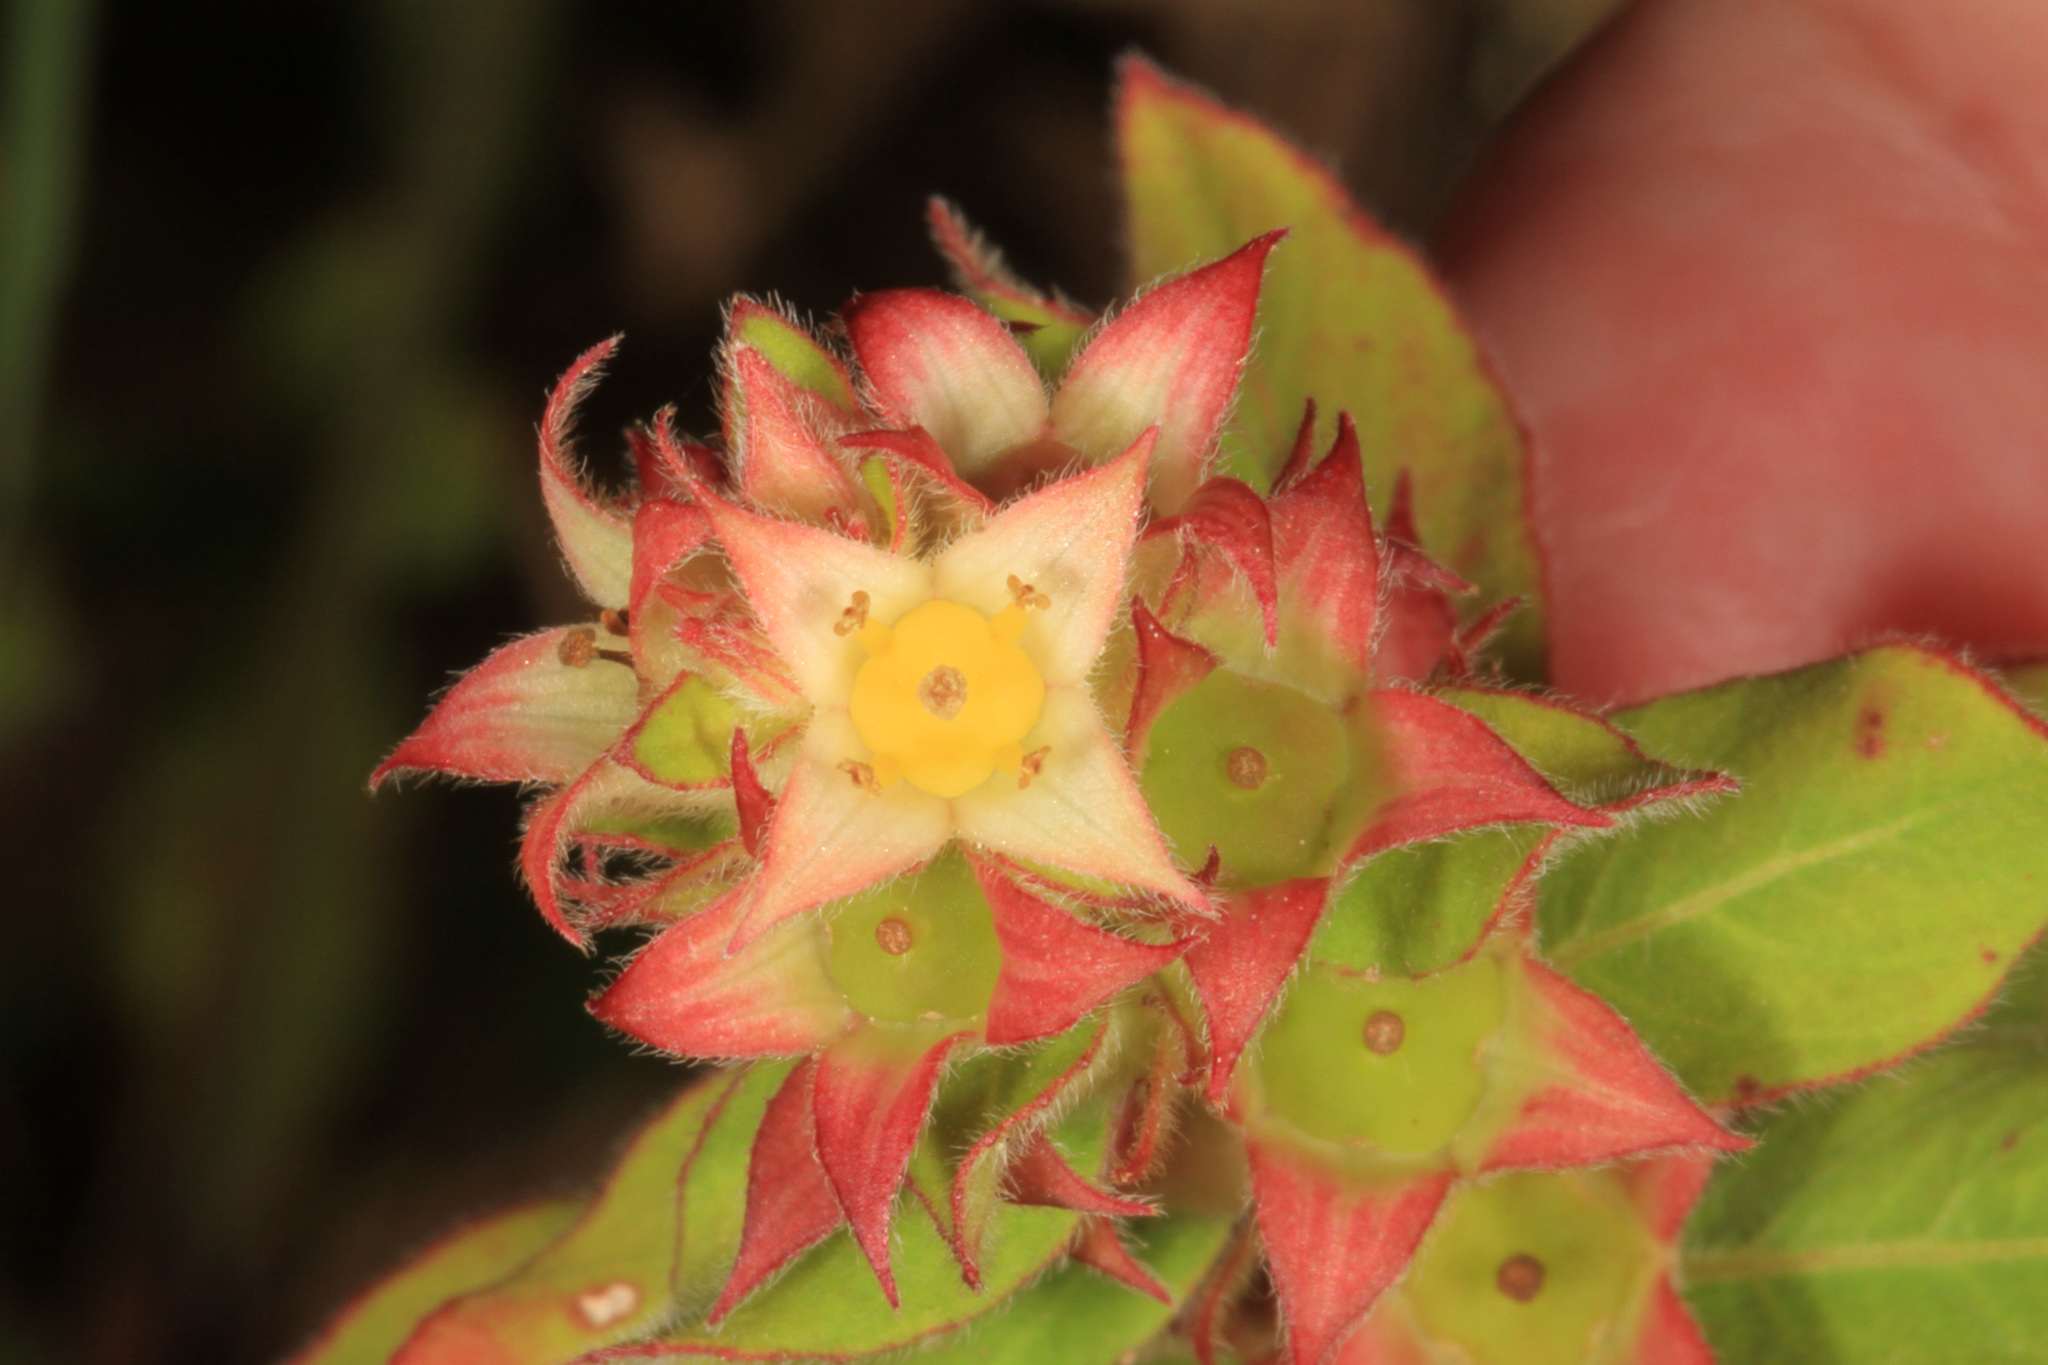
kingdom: Plantae
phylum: Tracheophyta
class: Magnoliopsida
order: Myrtales
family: Onagraceae
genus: Ludwigia
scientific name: Ludwigia alternifolia
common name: Rattlebox
